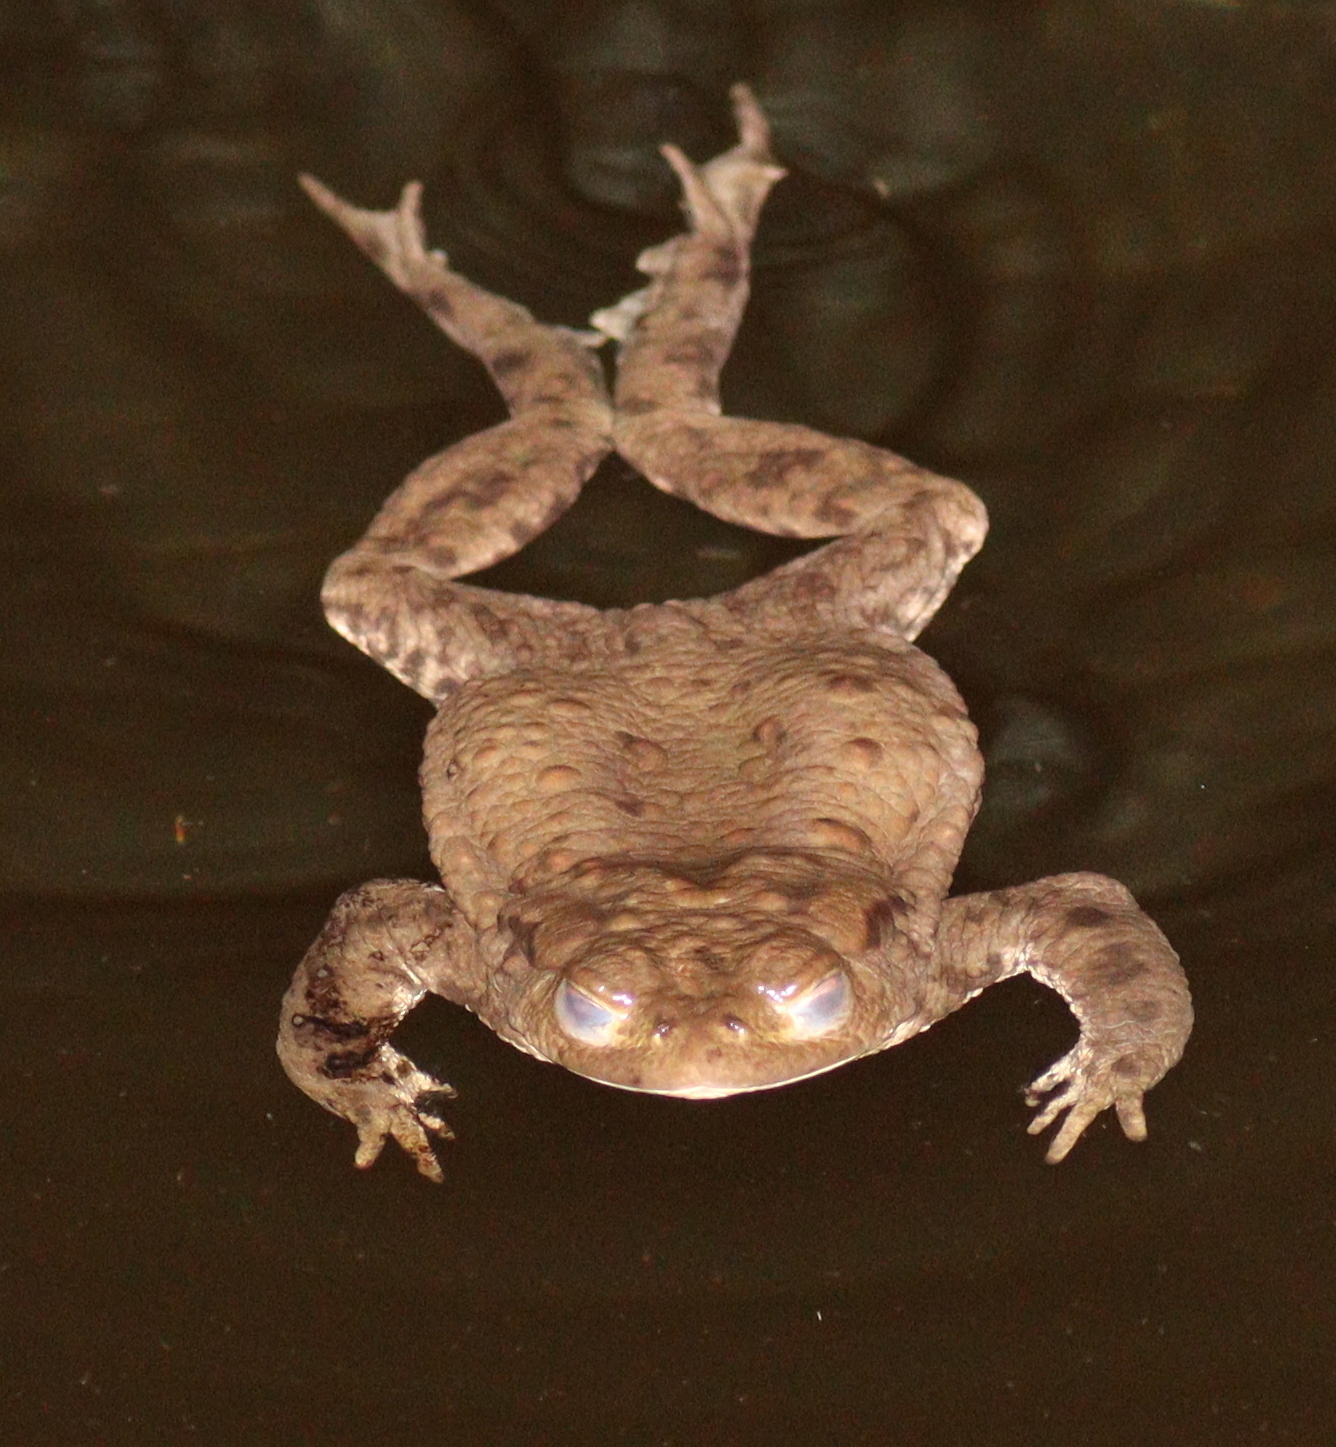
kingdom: Animalia
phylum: Chordata
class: Amphibia
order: Anura
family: Bufonidae
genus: Bufo
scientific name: Bufo bufo
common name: Common toad
